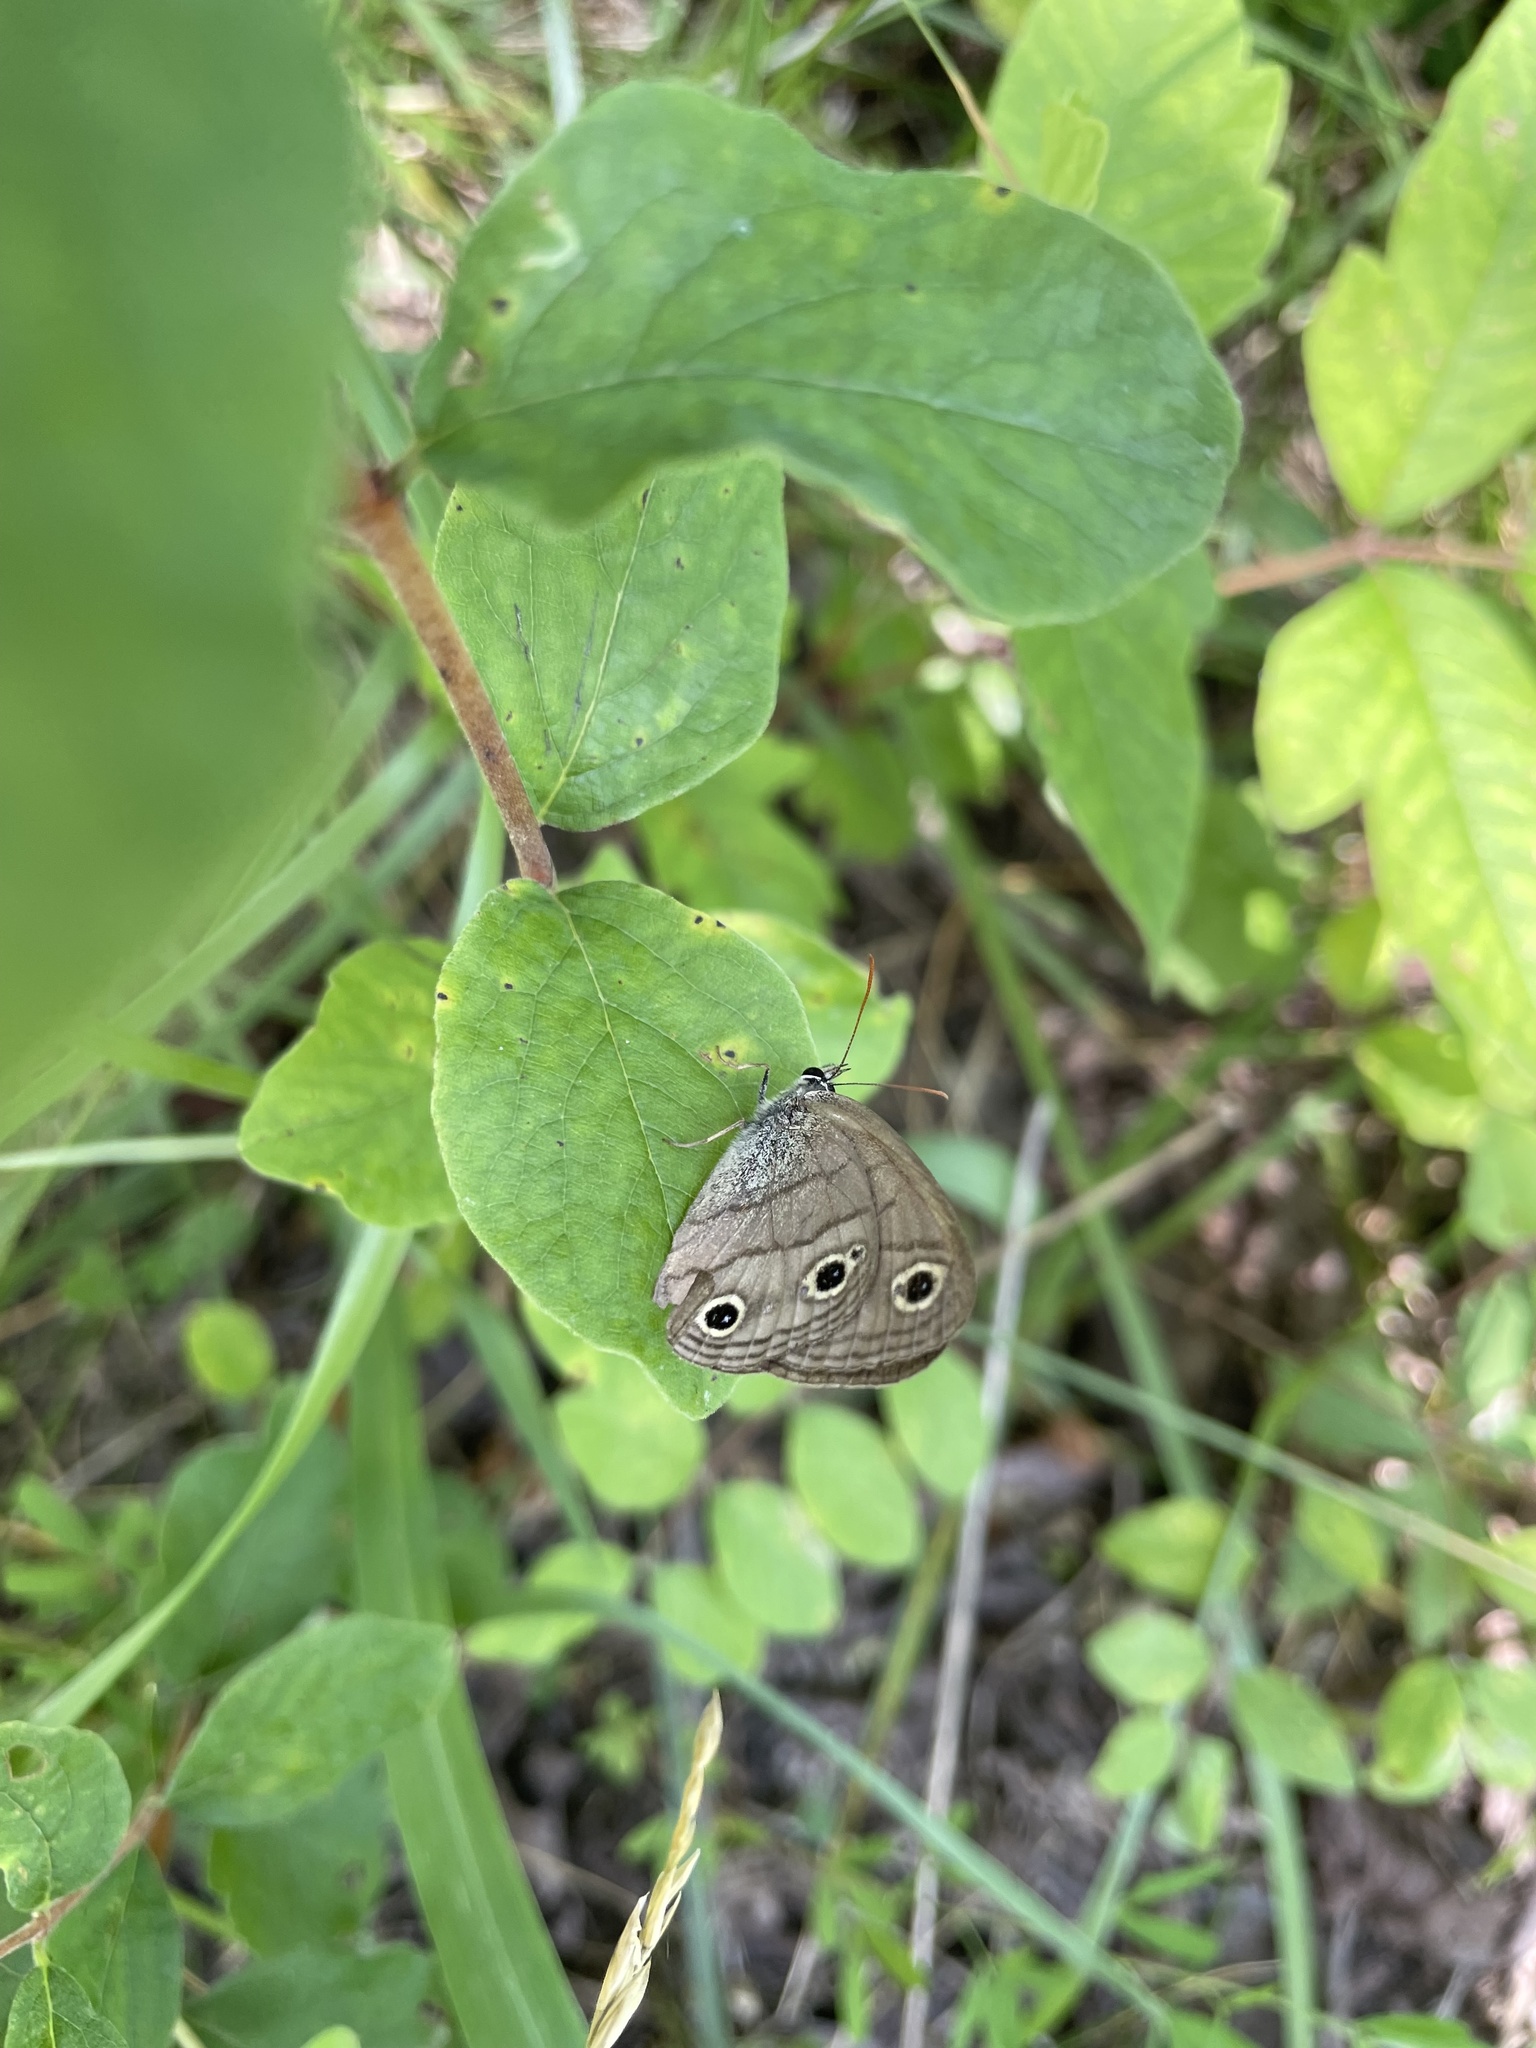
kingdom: Animalia
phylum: Arthropoda
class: Insecta
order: Lepidoptera
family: Nymphalidae
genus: Euptychia
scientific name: Euptychia cymela
